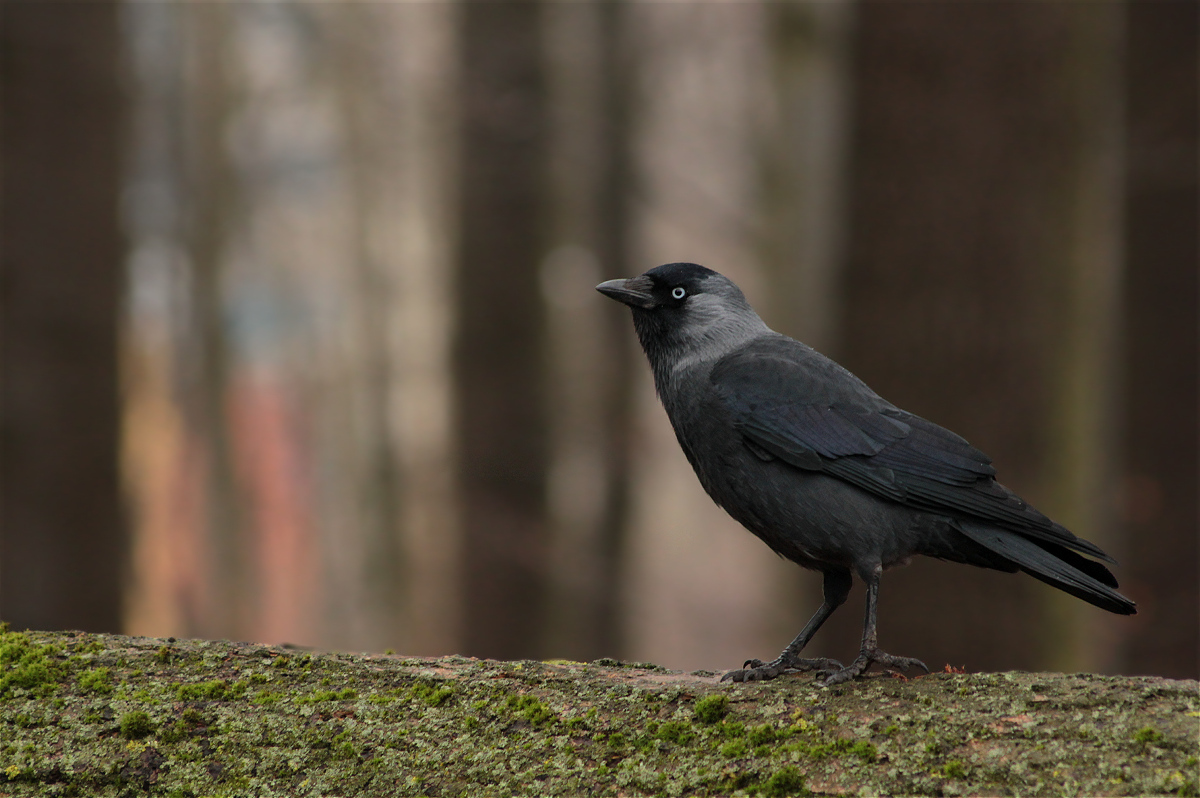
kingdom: Animalia
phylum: Chordata
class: Aves
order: Passeriformes
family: Corvidae
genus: Coloeus
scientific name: Coloeus monedula
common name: Western jackdaw
